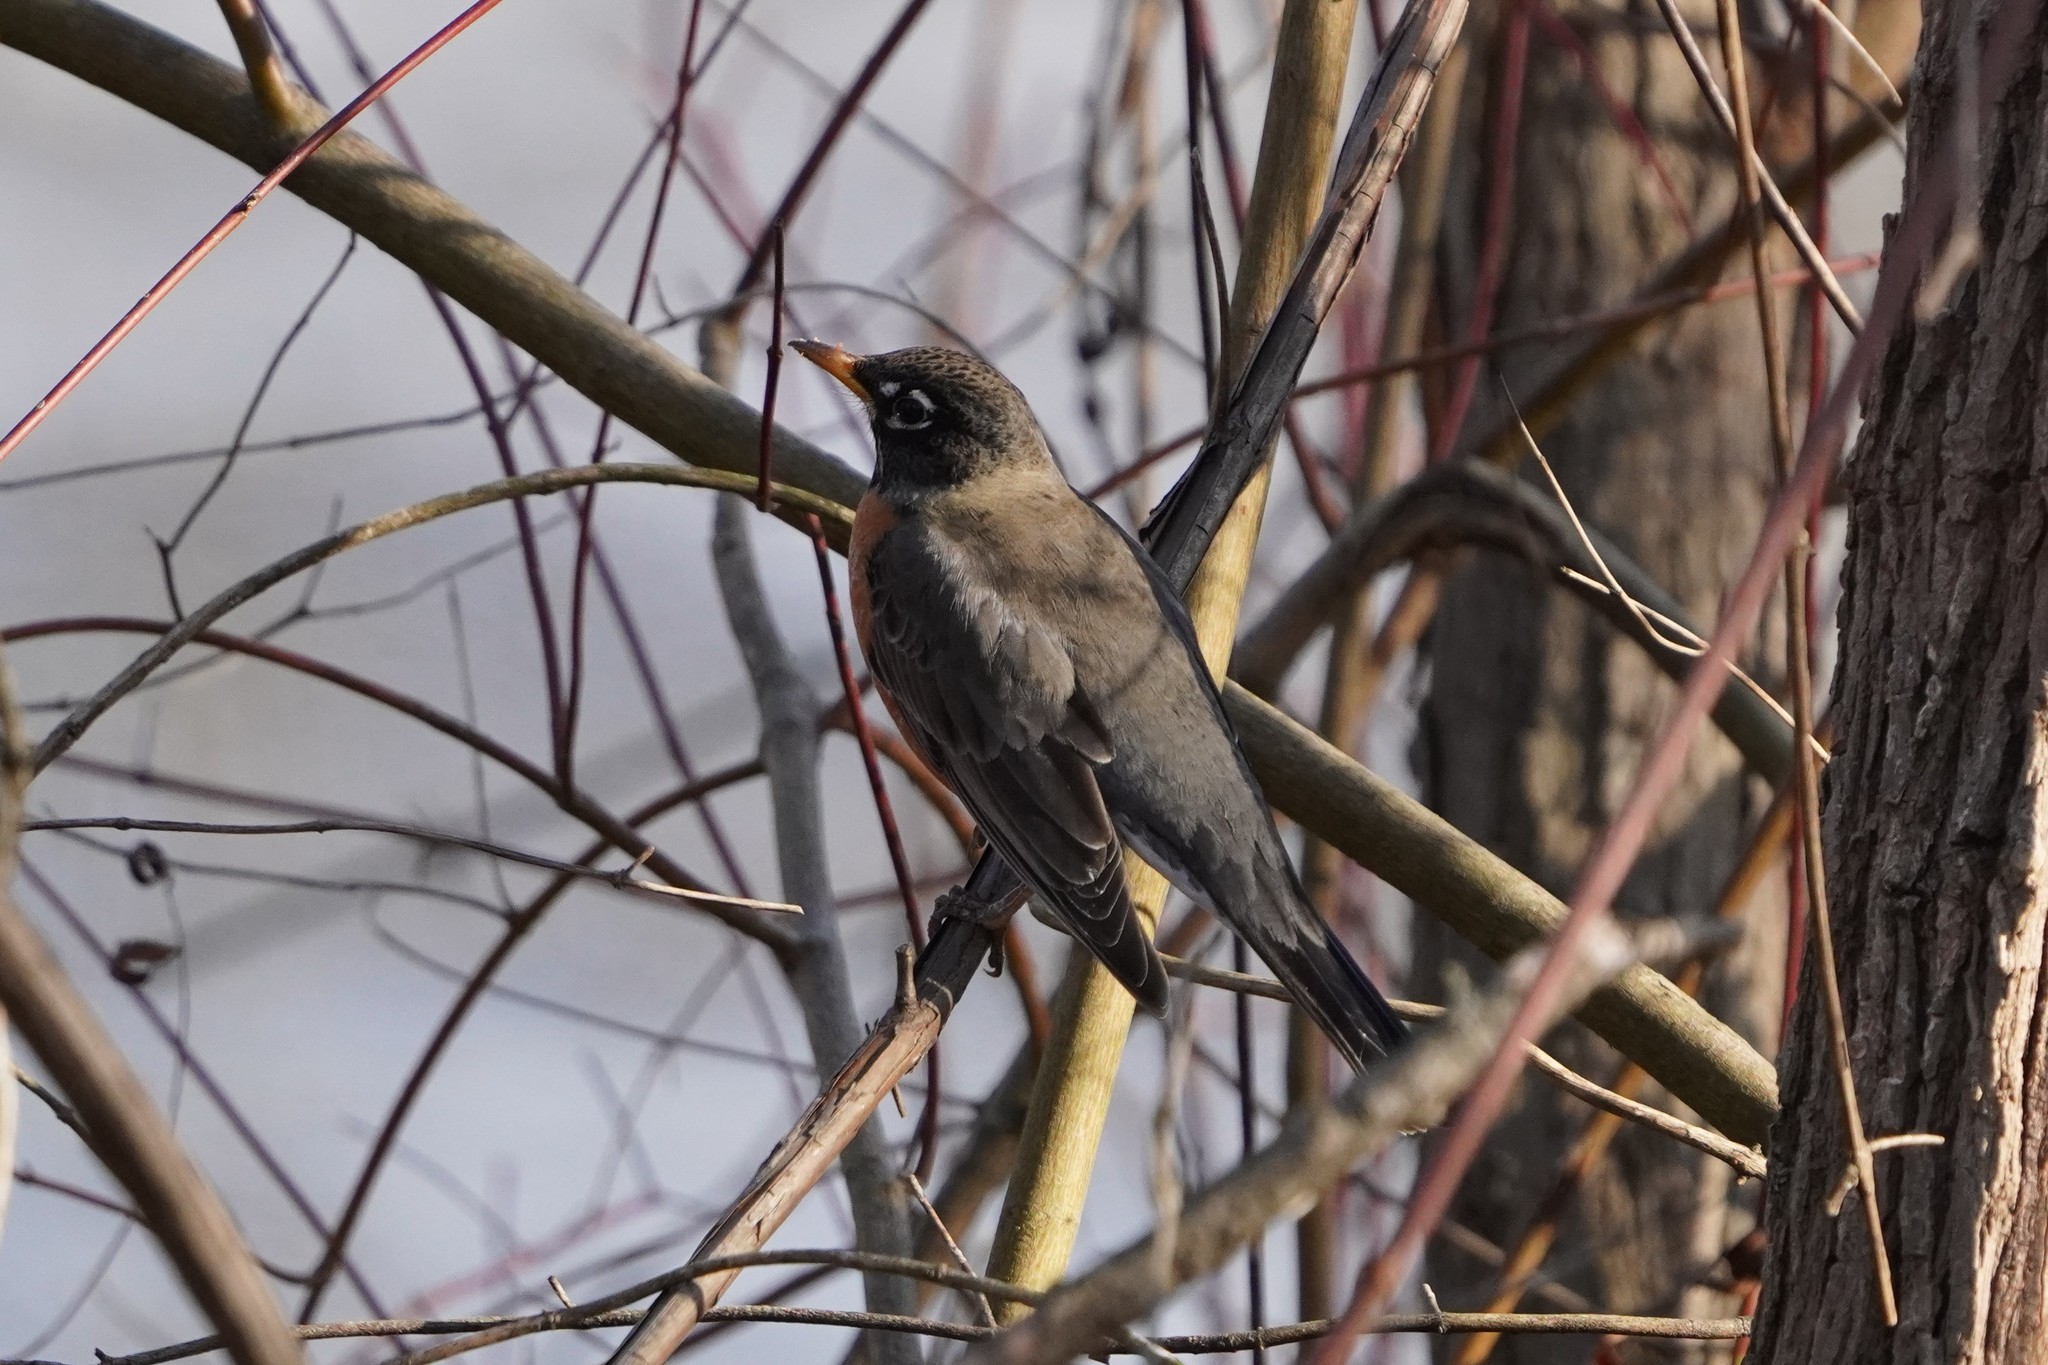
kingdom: Animalia
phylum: Chordata
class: Aves
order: Passeriformes
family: Turdidae
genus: Turdus
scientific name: Turdus migratorius
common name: American robin
